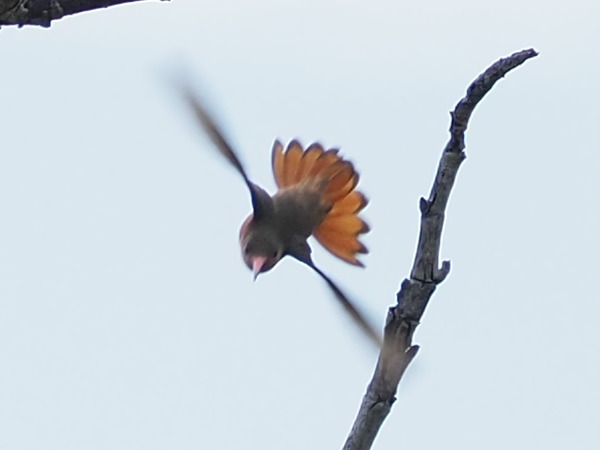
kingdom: Animalia
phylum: Chordata
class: Aves
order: Apodiformes
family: Trochilidae
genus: Amazilia
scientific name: Amazilia rutila
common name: Cinnamon hummingbird
